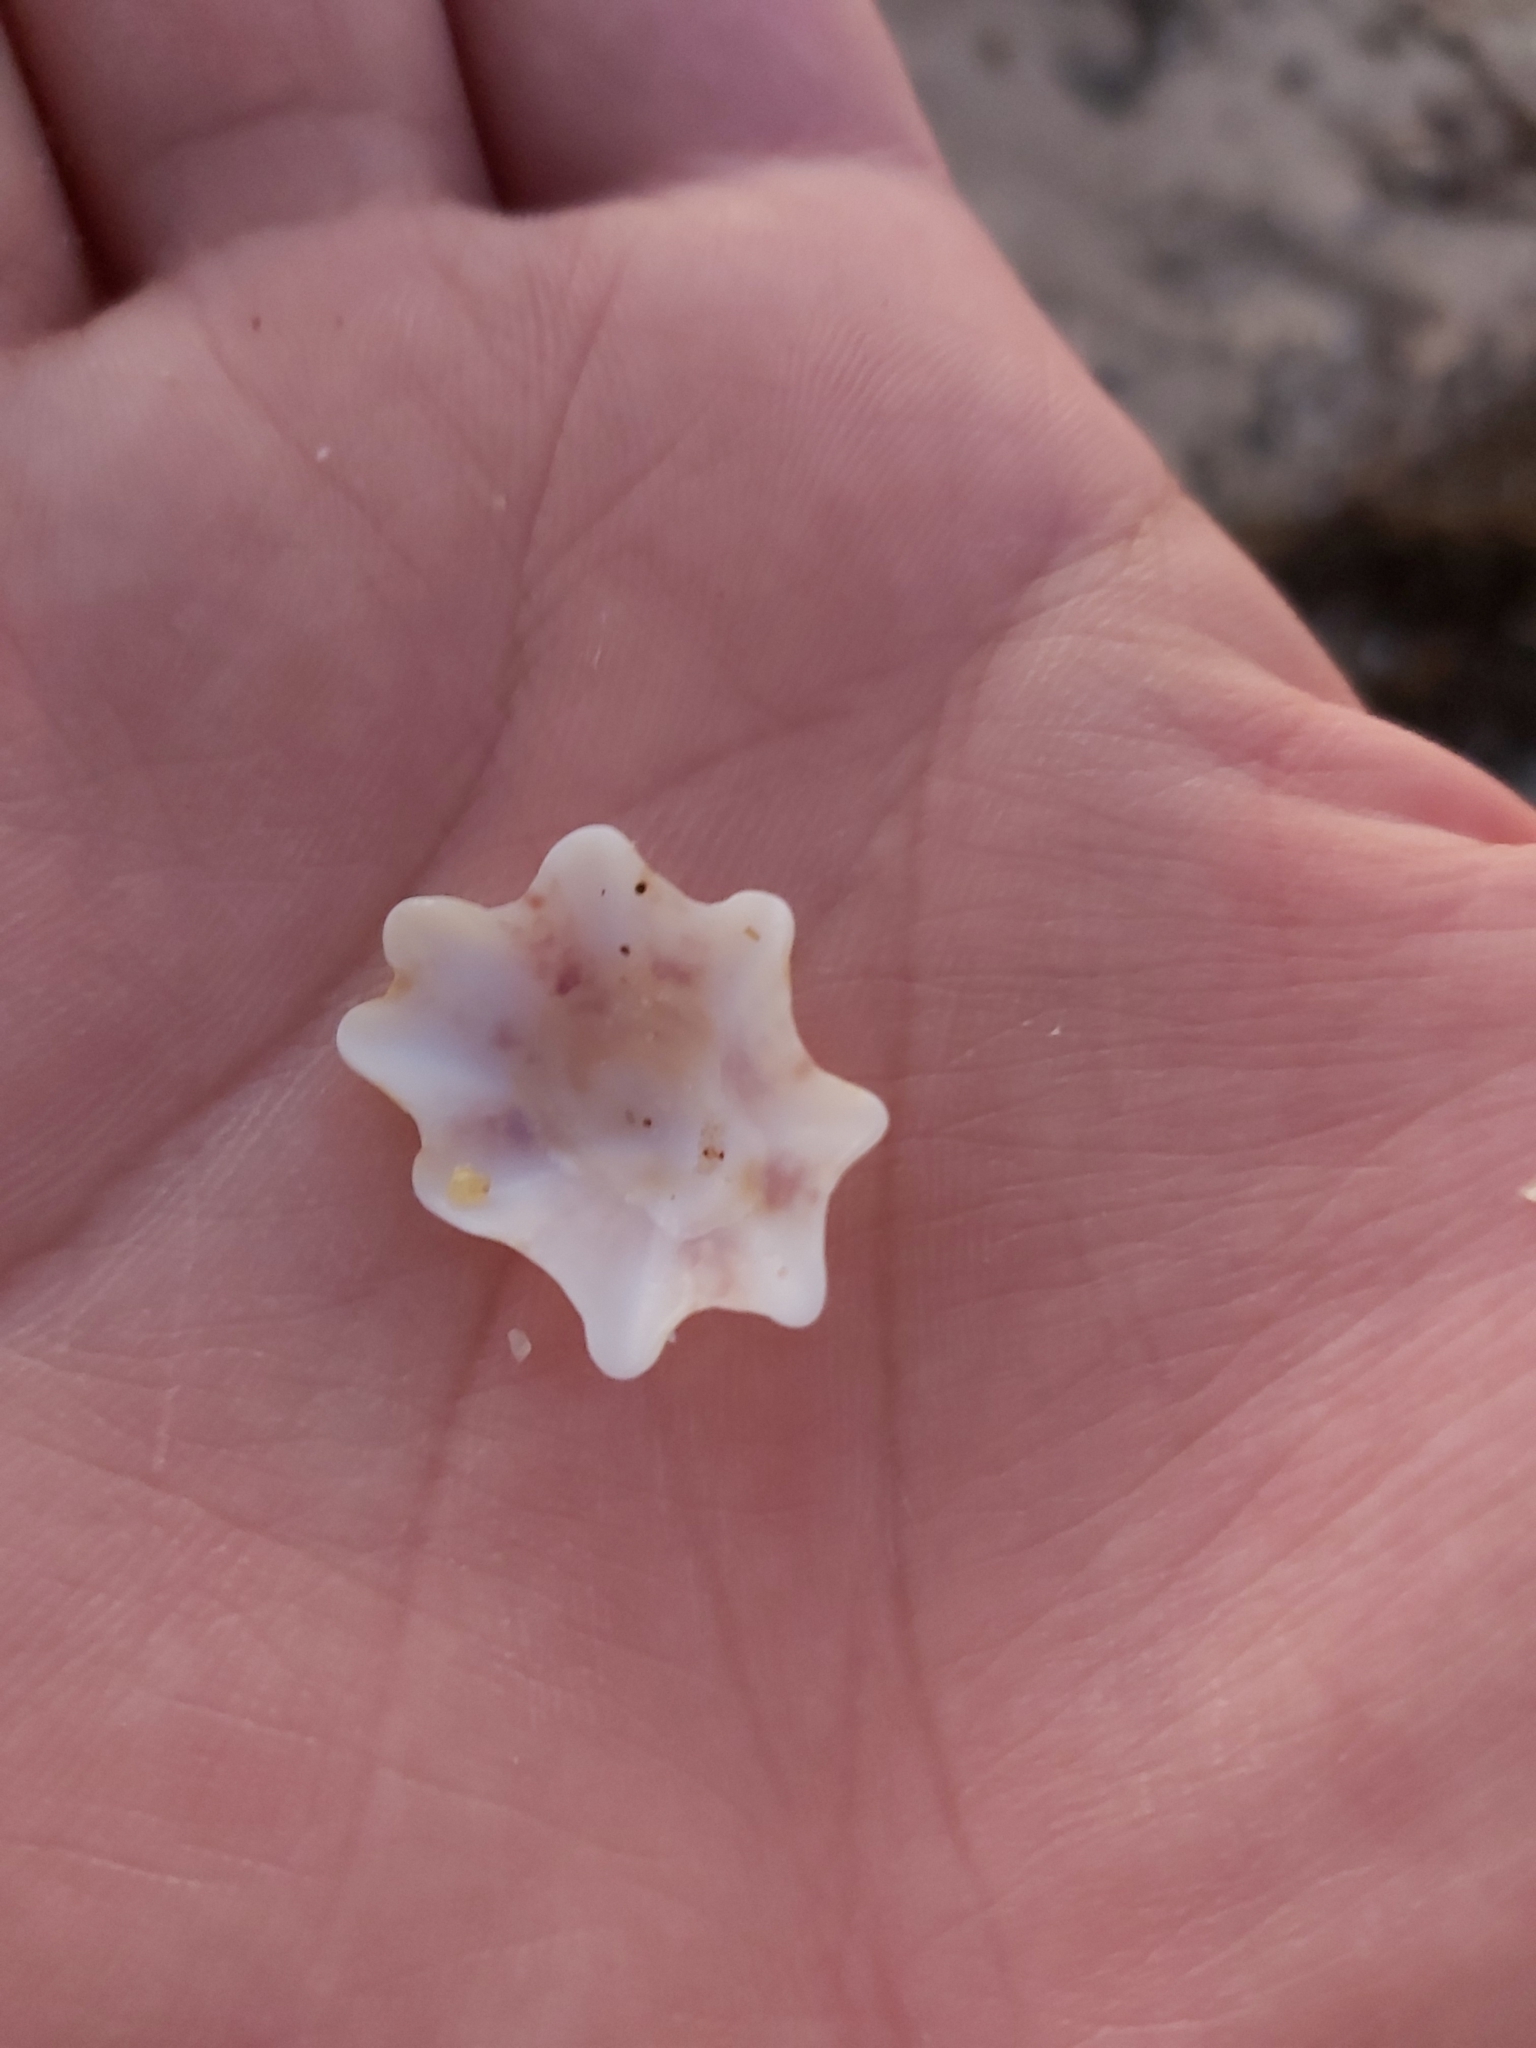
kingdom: Animalia
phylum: Mollusca
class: Gastropoda
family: Patellidae
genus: Scutellastra
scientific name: Scutellastra chapmani
